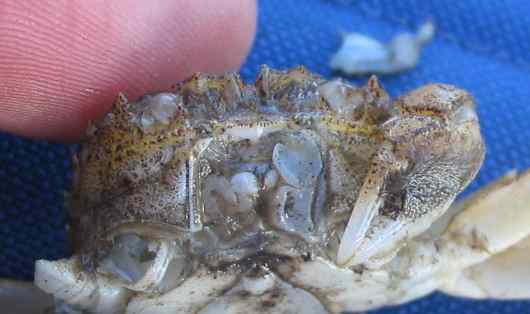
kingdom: Animalia
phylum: Arthropoda
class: Malacostraca
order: Decapoda
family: Varunidae
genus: Eriocheir
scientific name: Eriocheir sinensis
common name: Chinese mitten crab
